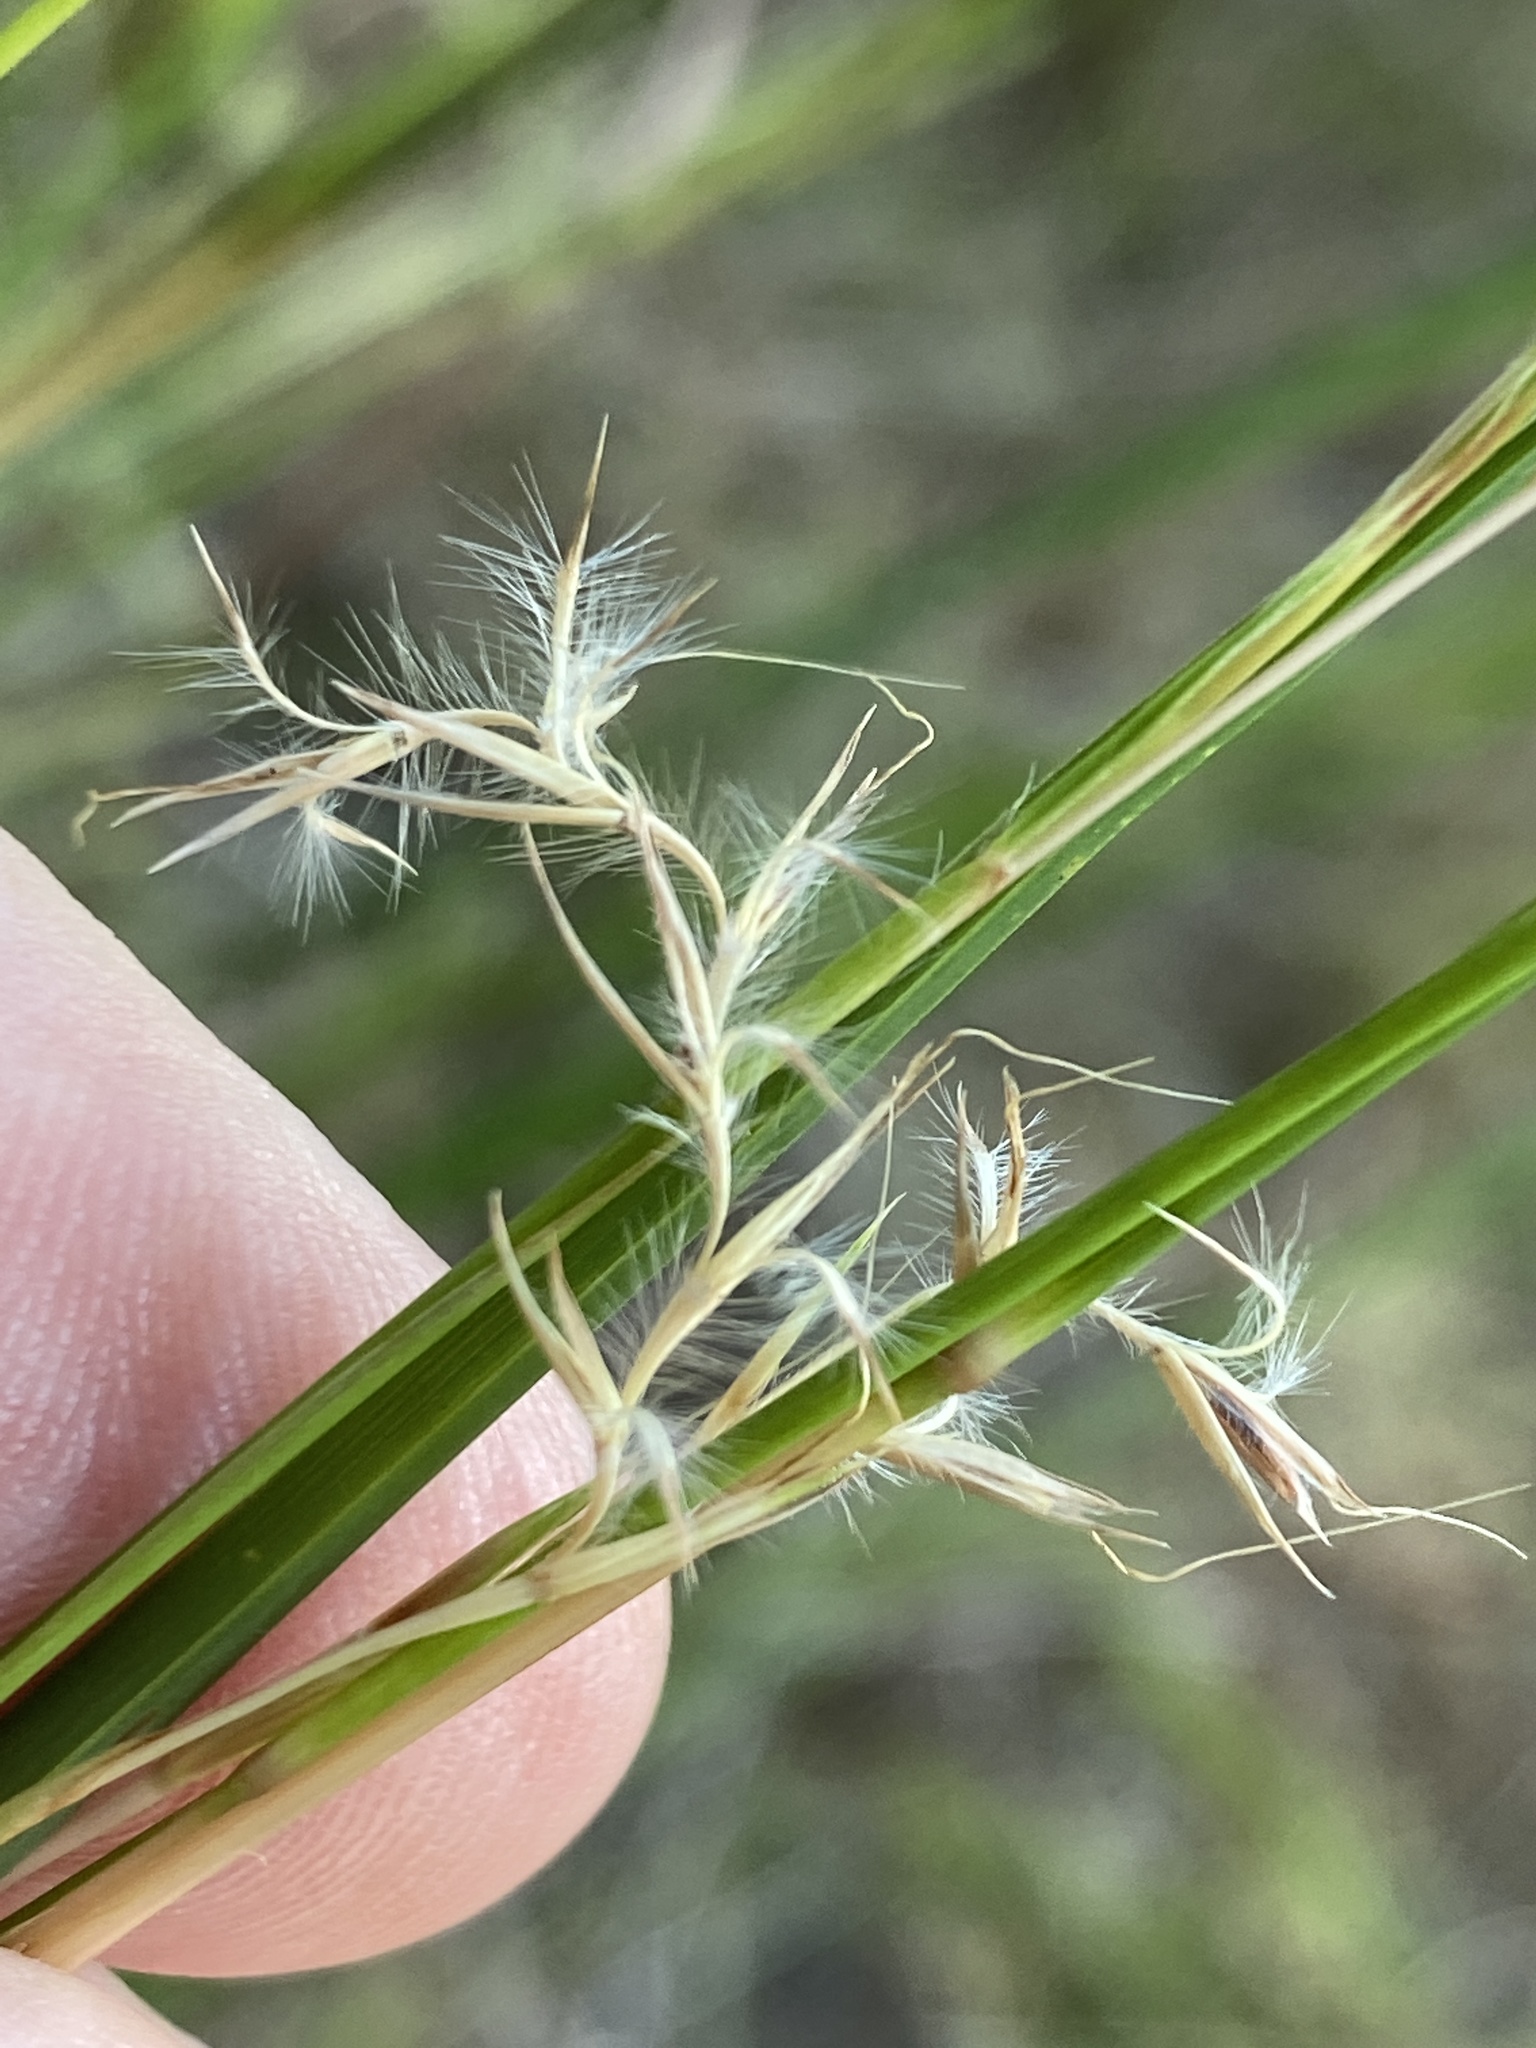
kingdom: Plantae
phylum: Tracheophyta
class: Liliopsida
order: Poales
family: Poaceae
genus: Schizachyrium
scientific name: Schizachyrium scoparium
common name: Little bluestem
